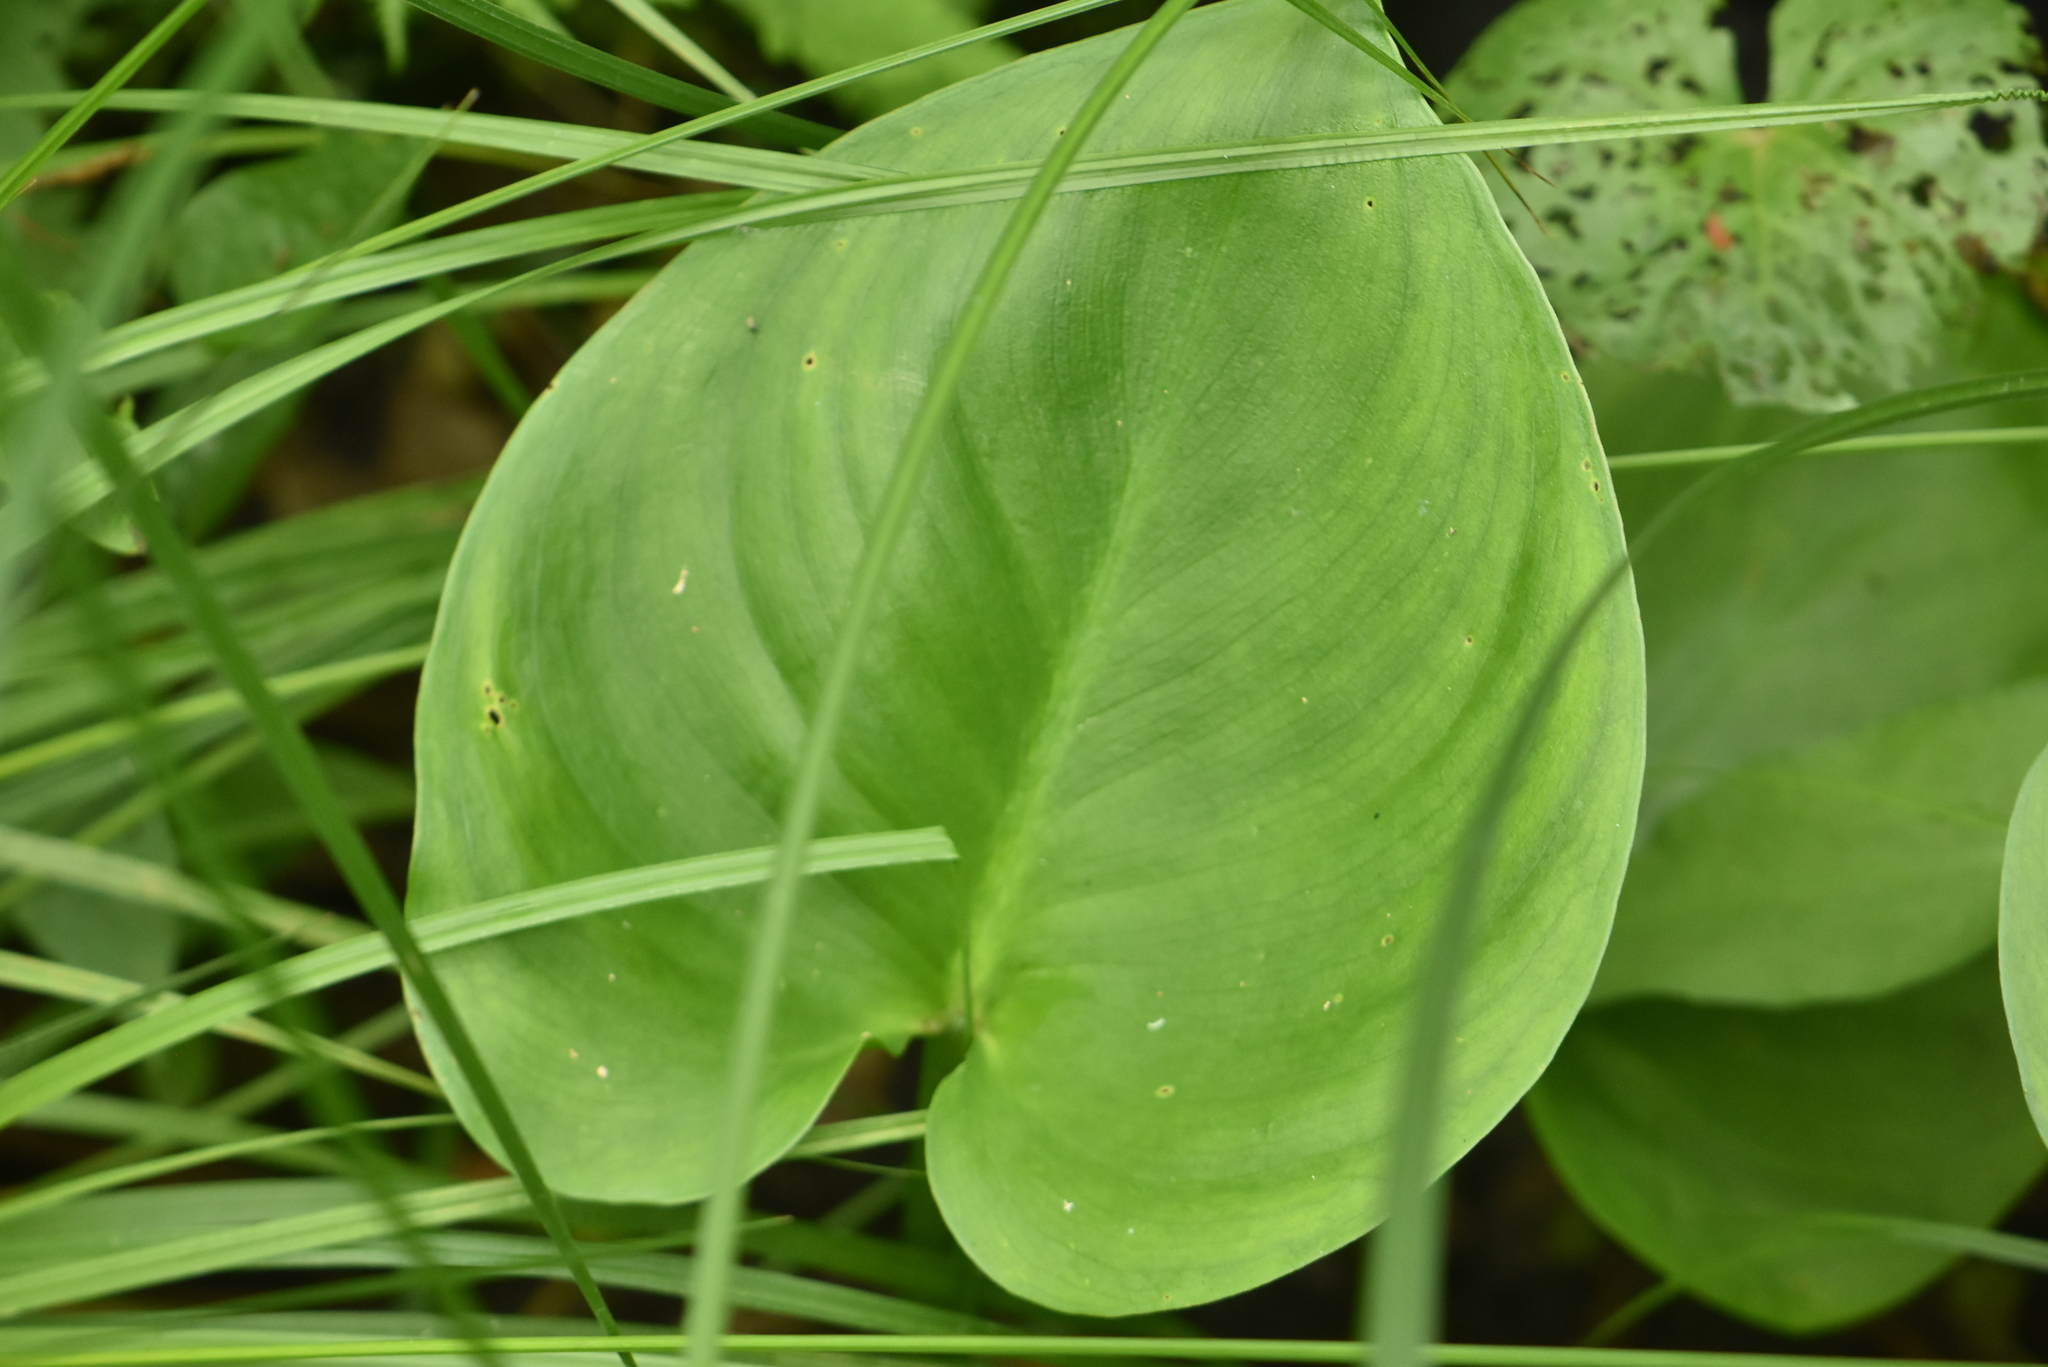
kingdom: Plantae
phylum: Tracheophyta
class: Liliopsida
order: Alismatales
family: Araceae
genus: Calla
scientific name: Calla palustris
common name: Bog arum
